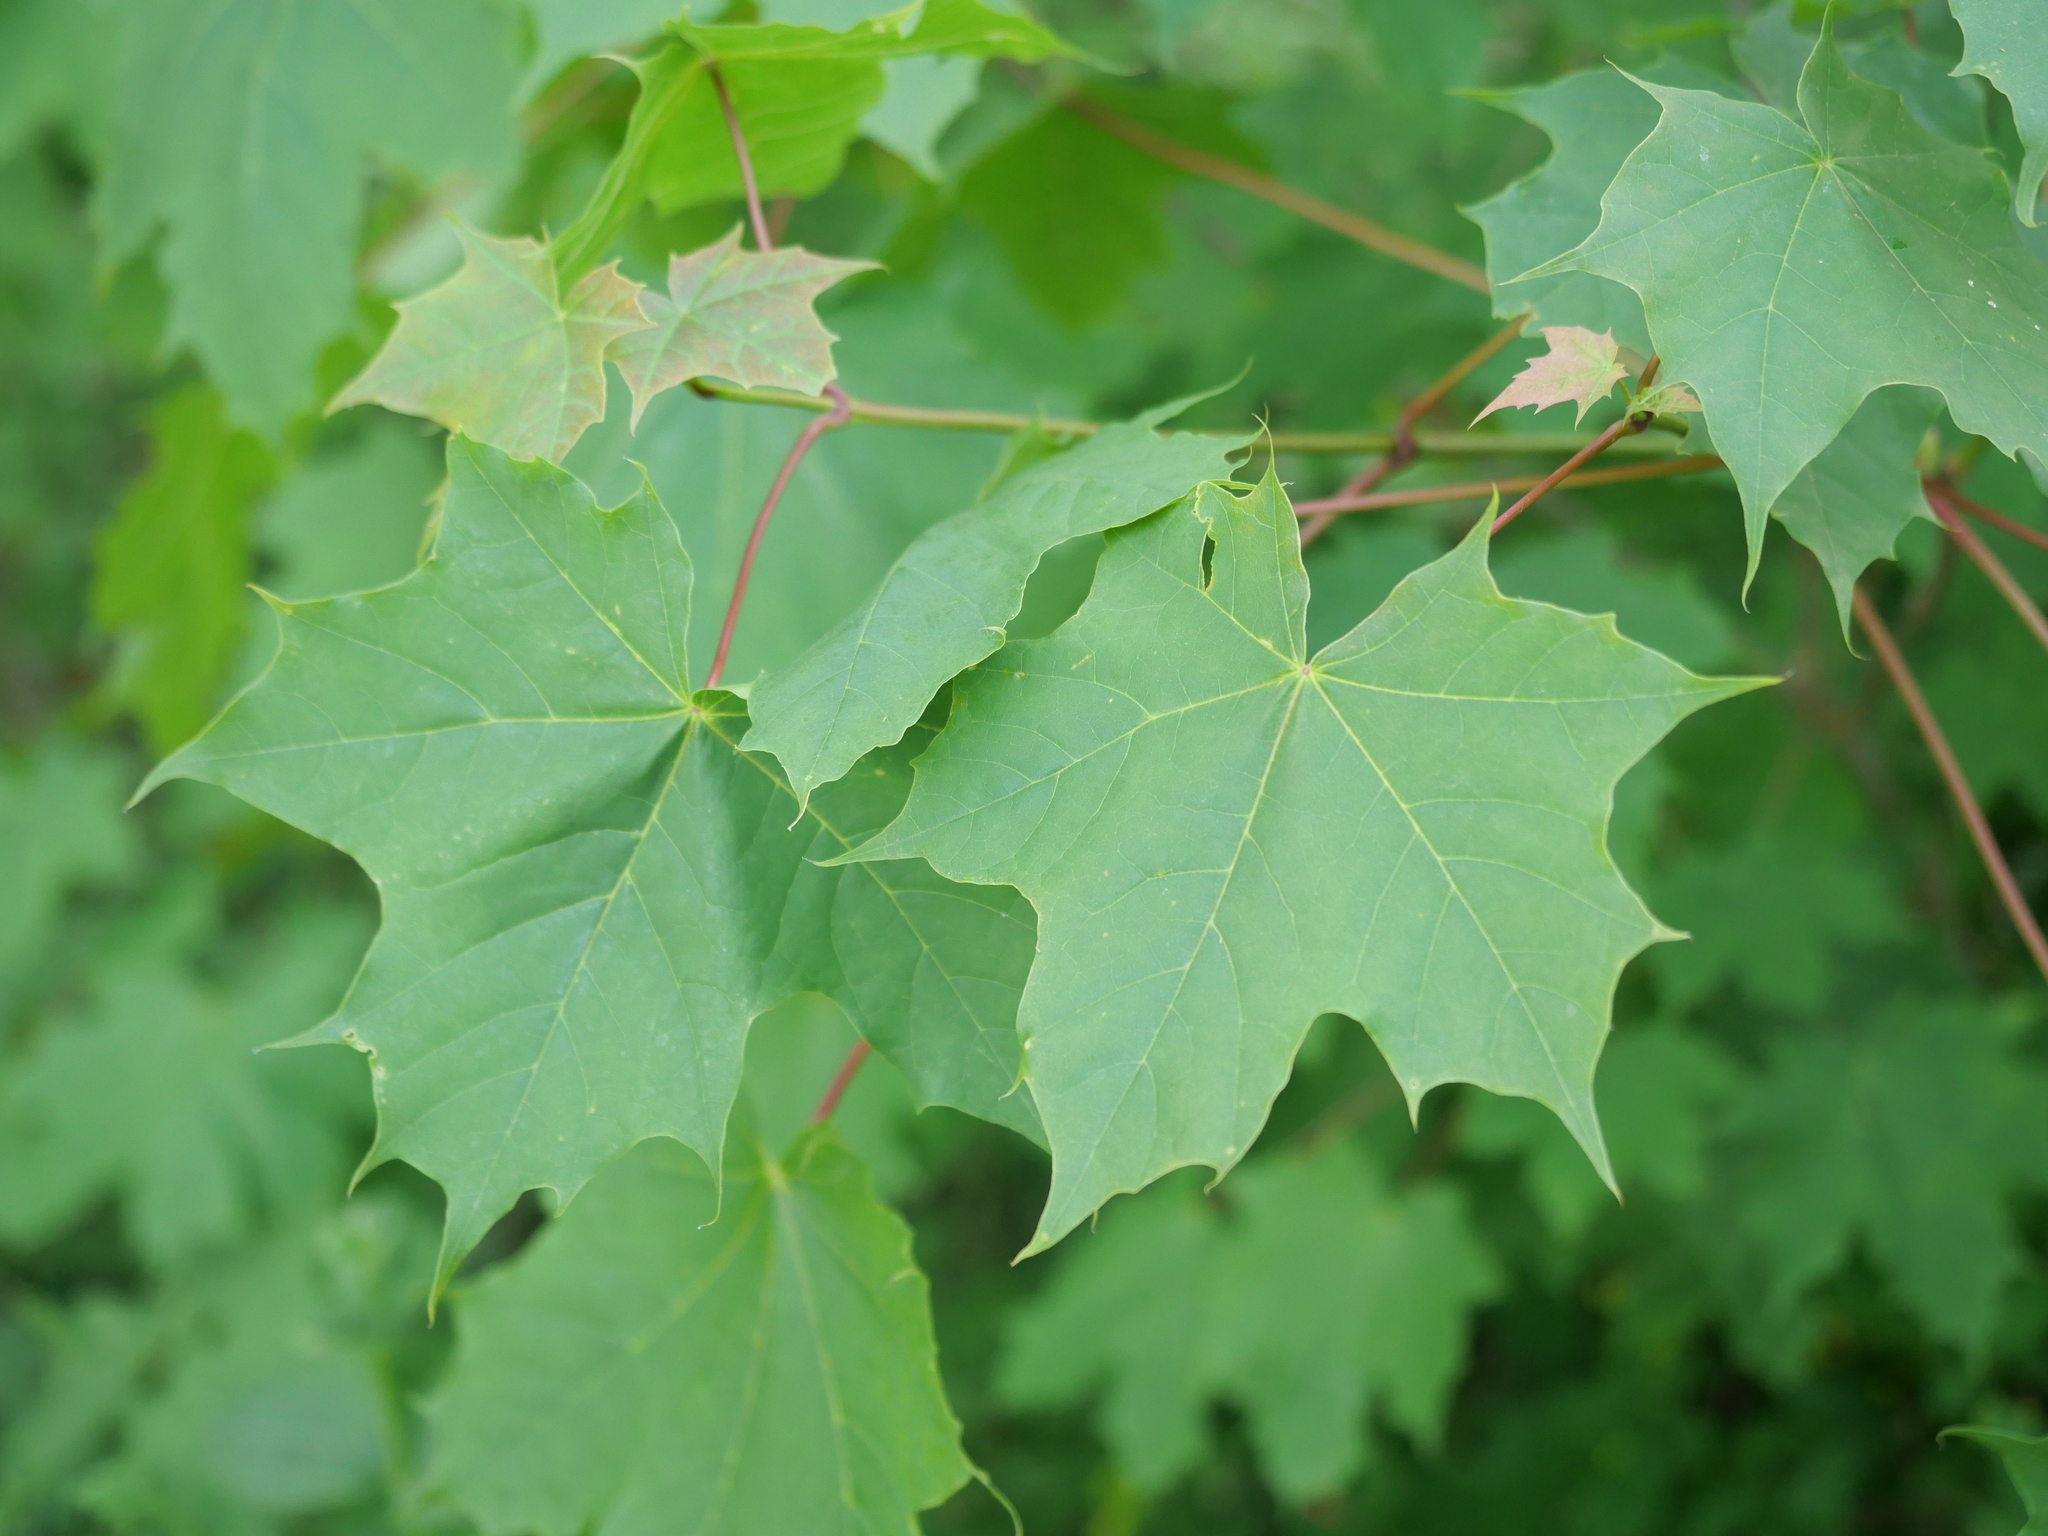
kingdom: Plantae
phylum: Tracheophyta
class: Magnoliopsida
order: Sapindales
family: Sapindaceae
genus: Acer
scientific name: Acer platanoides
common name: Norway maple
